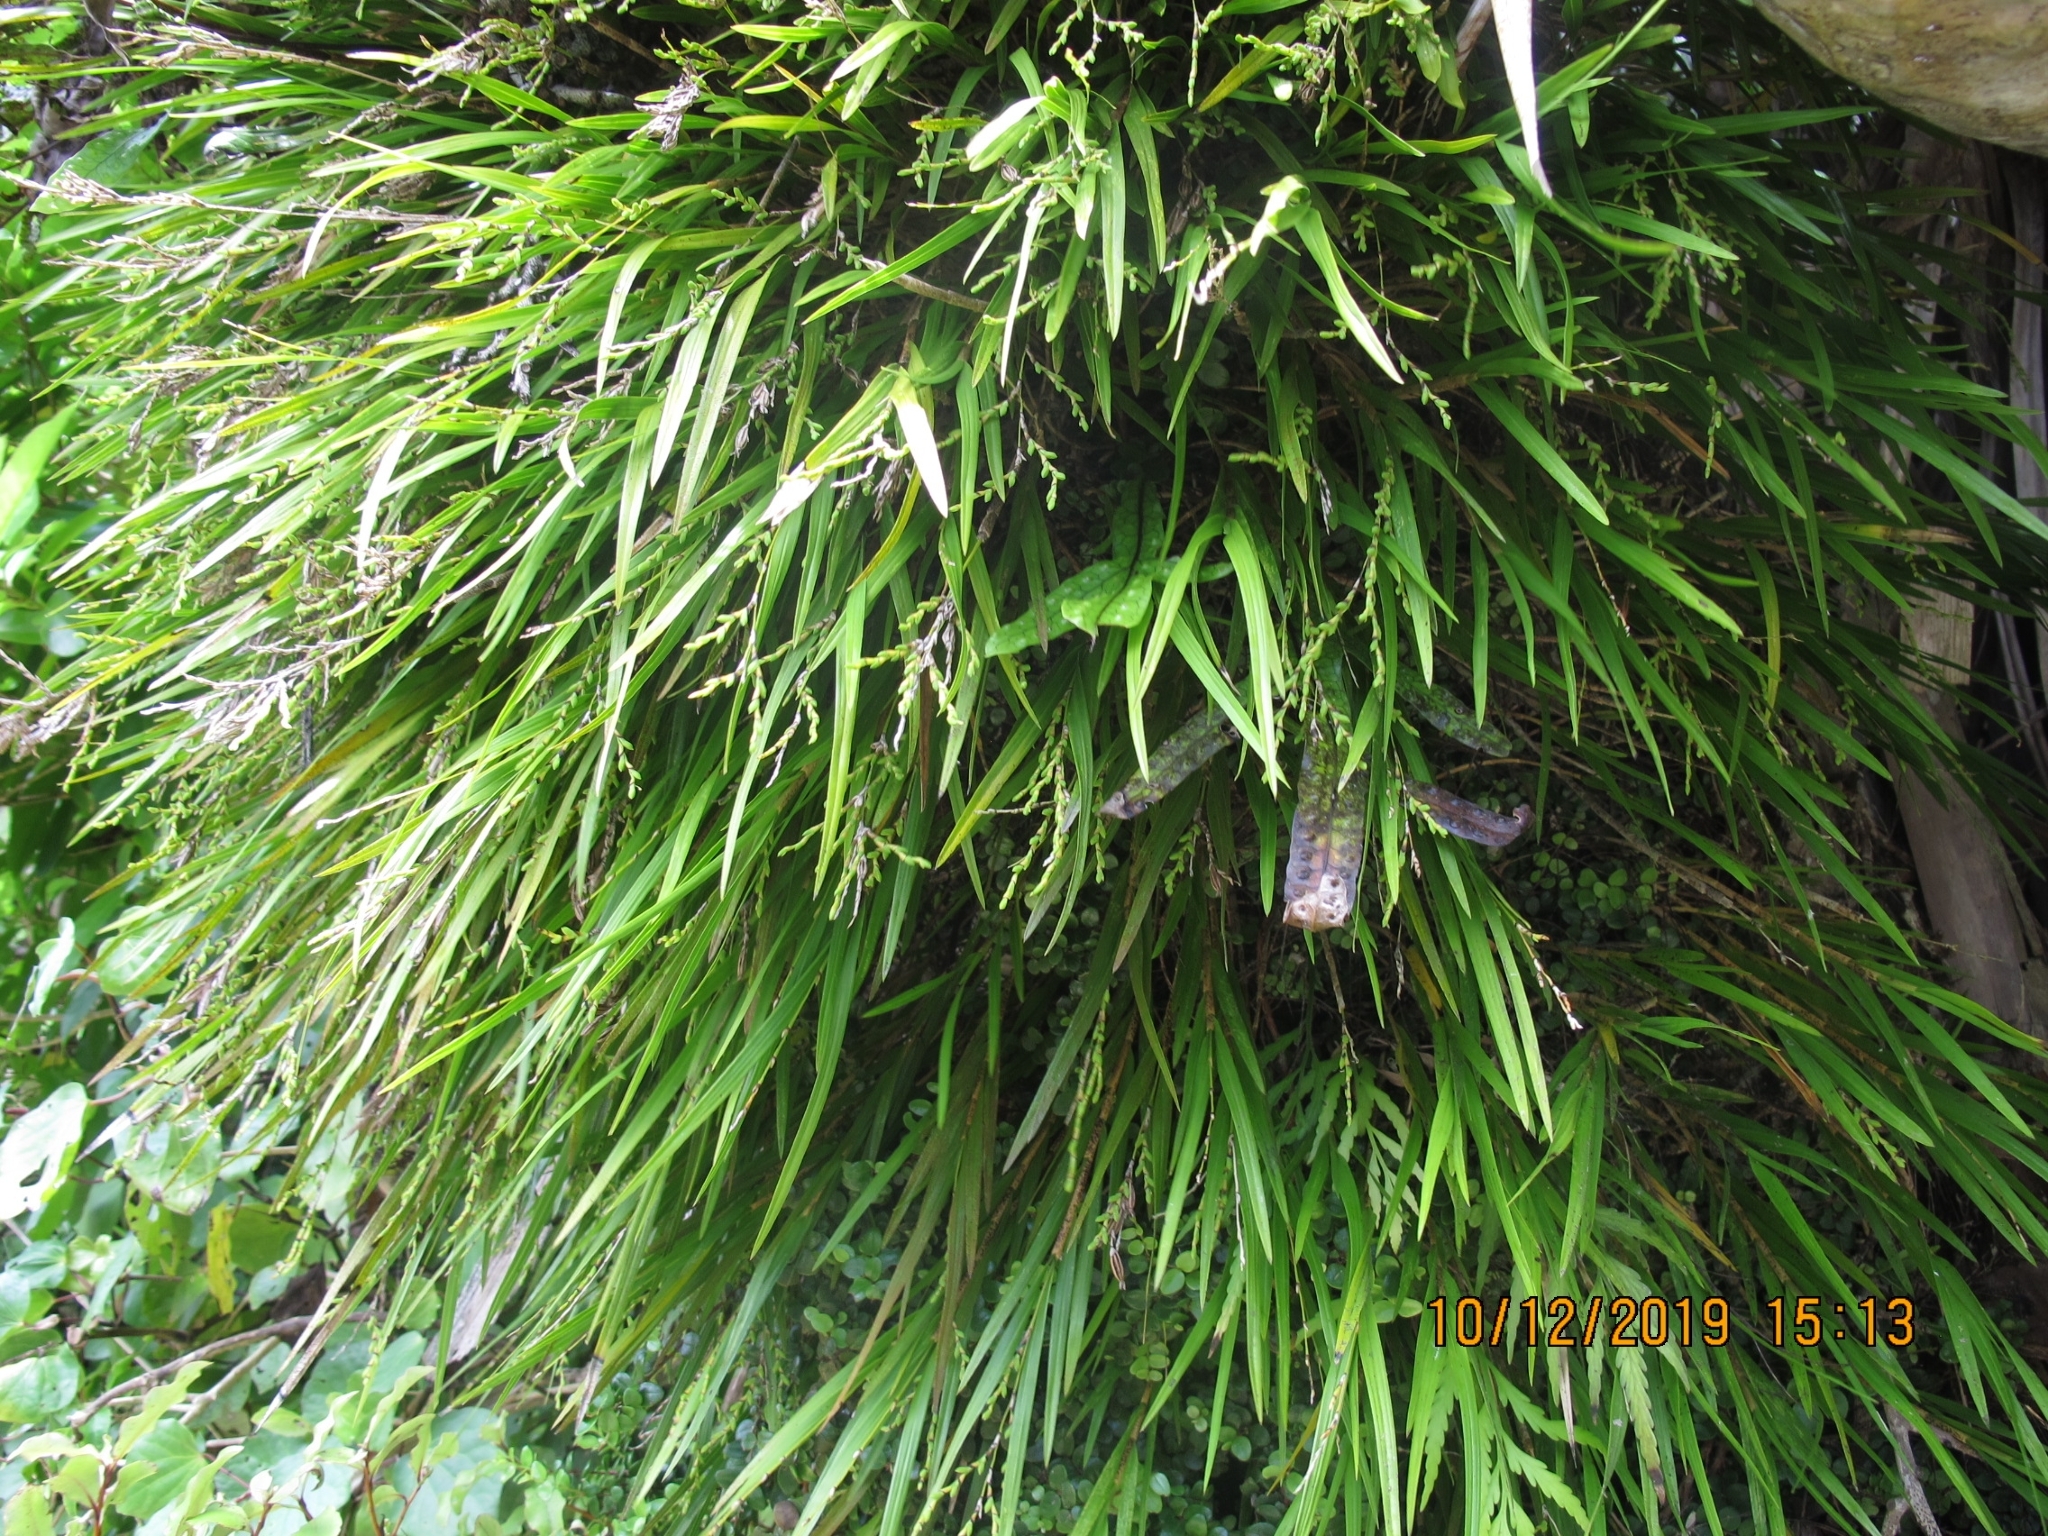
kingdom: Plantae
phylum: Tracheophyta
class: Liliopsida
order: Asparagales
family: Orchidaceae
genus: Earina
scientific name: Earina mucronata
